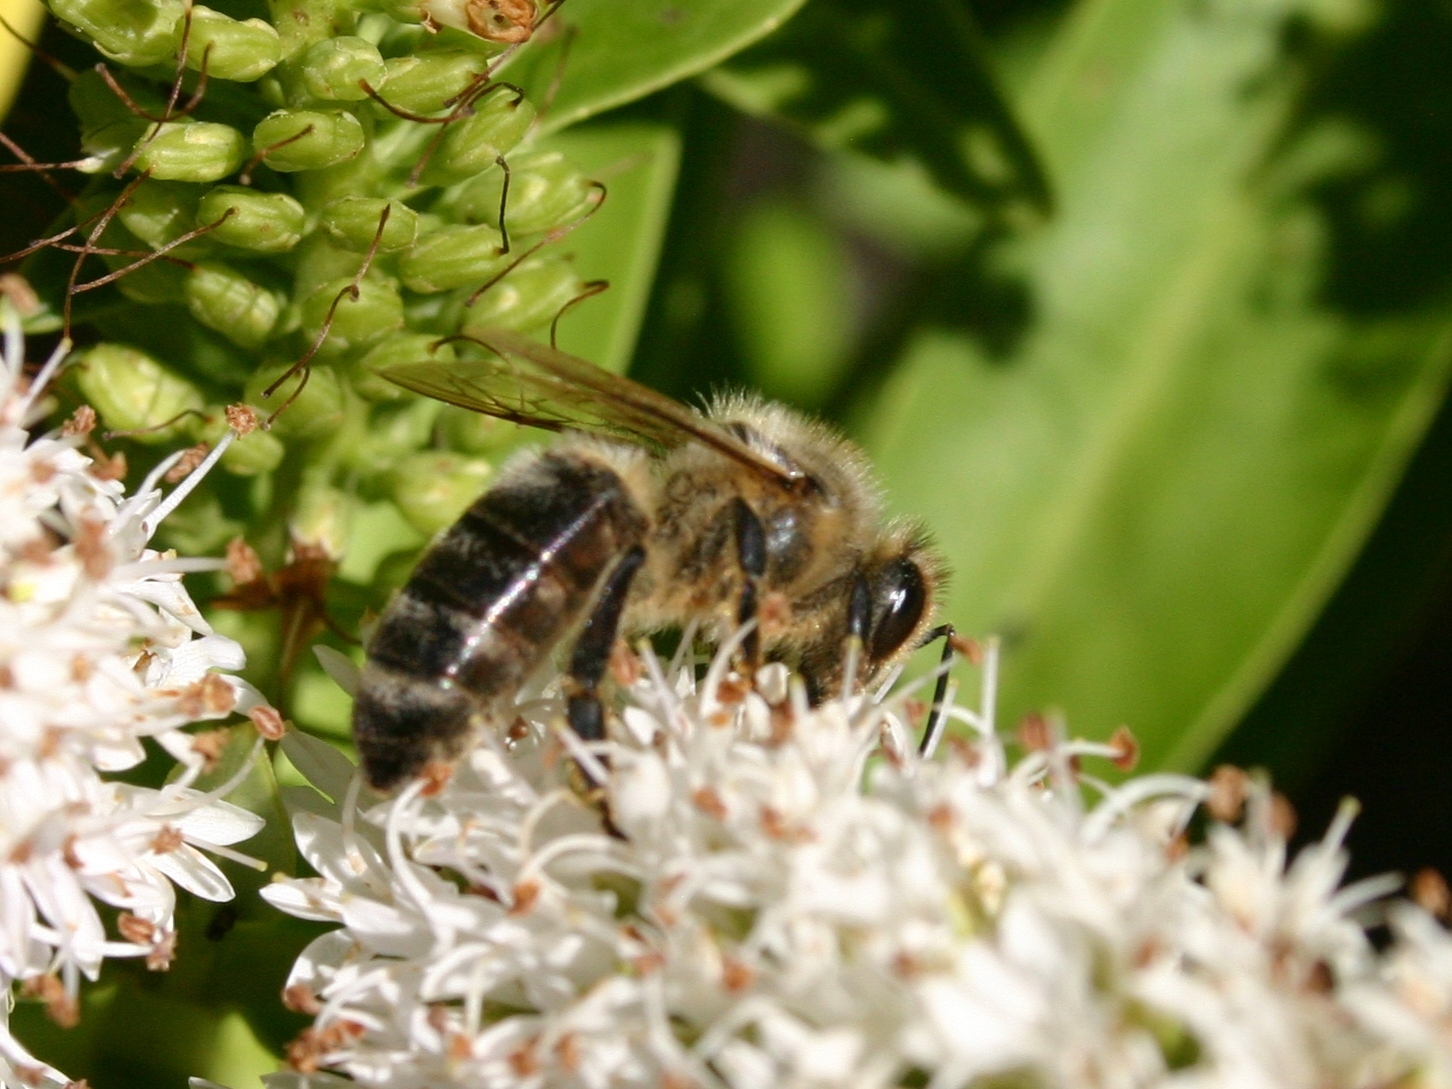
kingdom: Animalia
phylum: Arthropoda
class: Insecta
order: Hymenoptera
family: Apidae
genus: Apis
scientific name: Apis mellifera
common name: Honey bee
